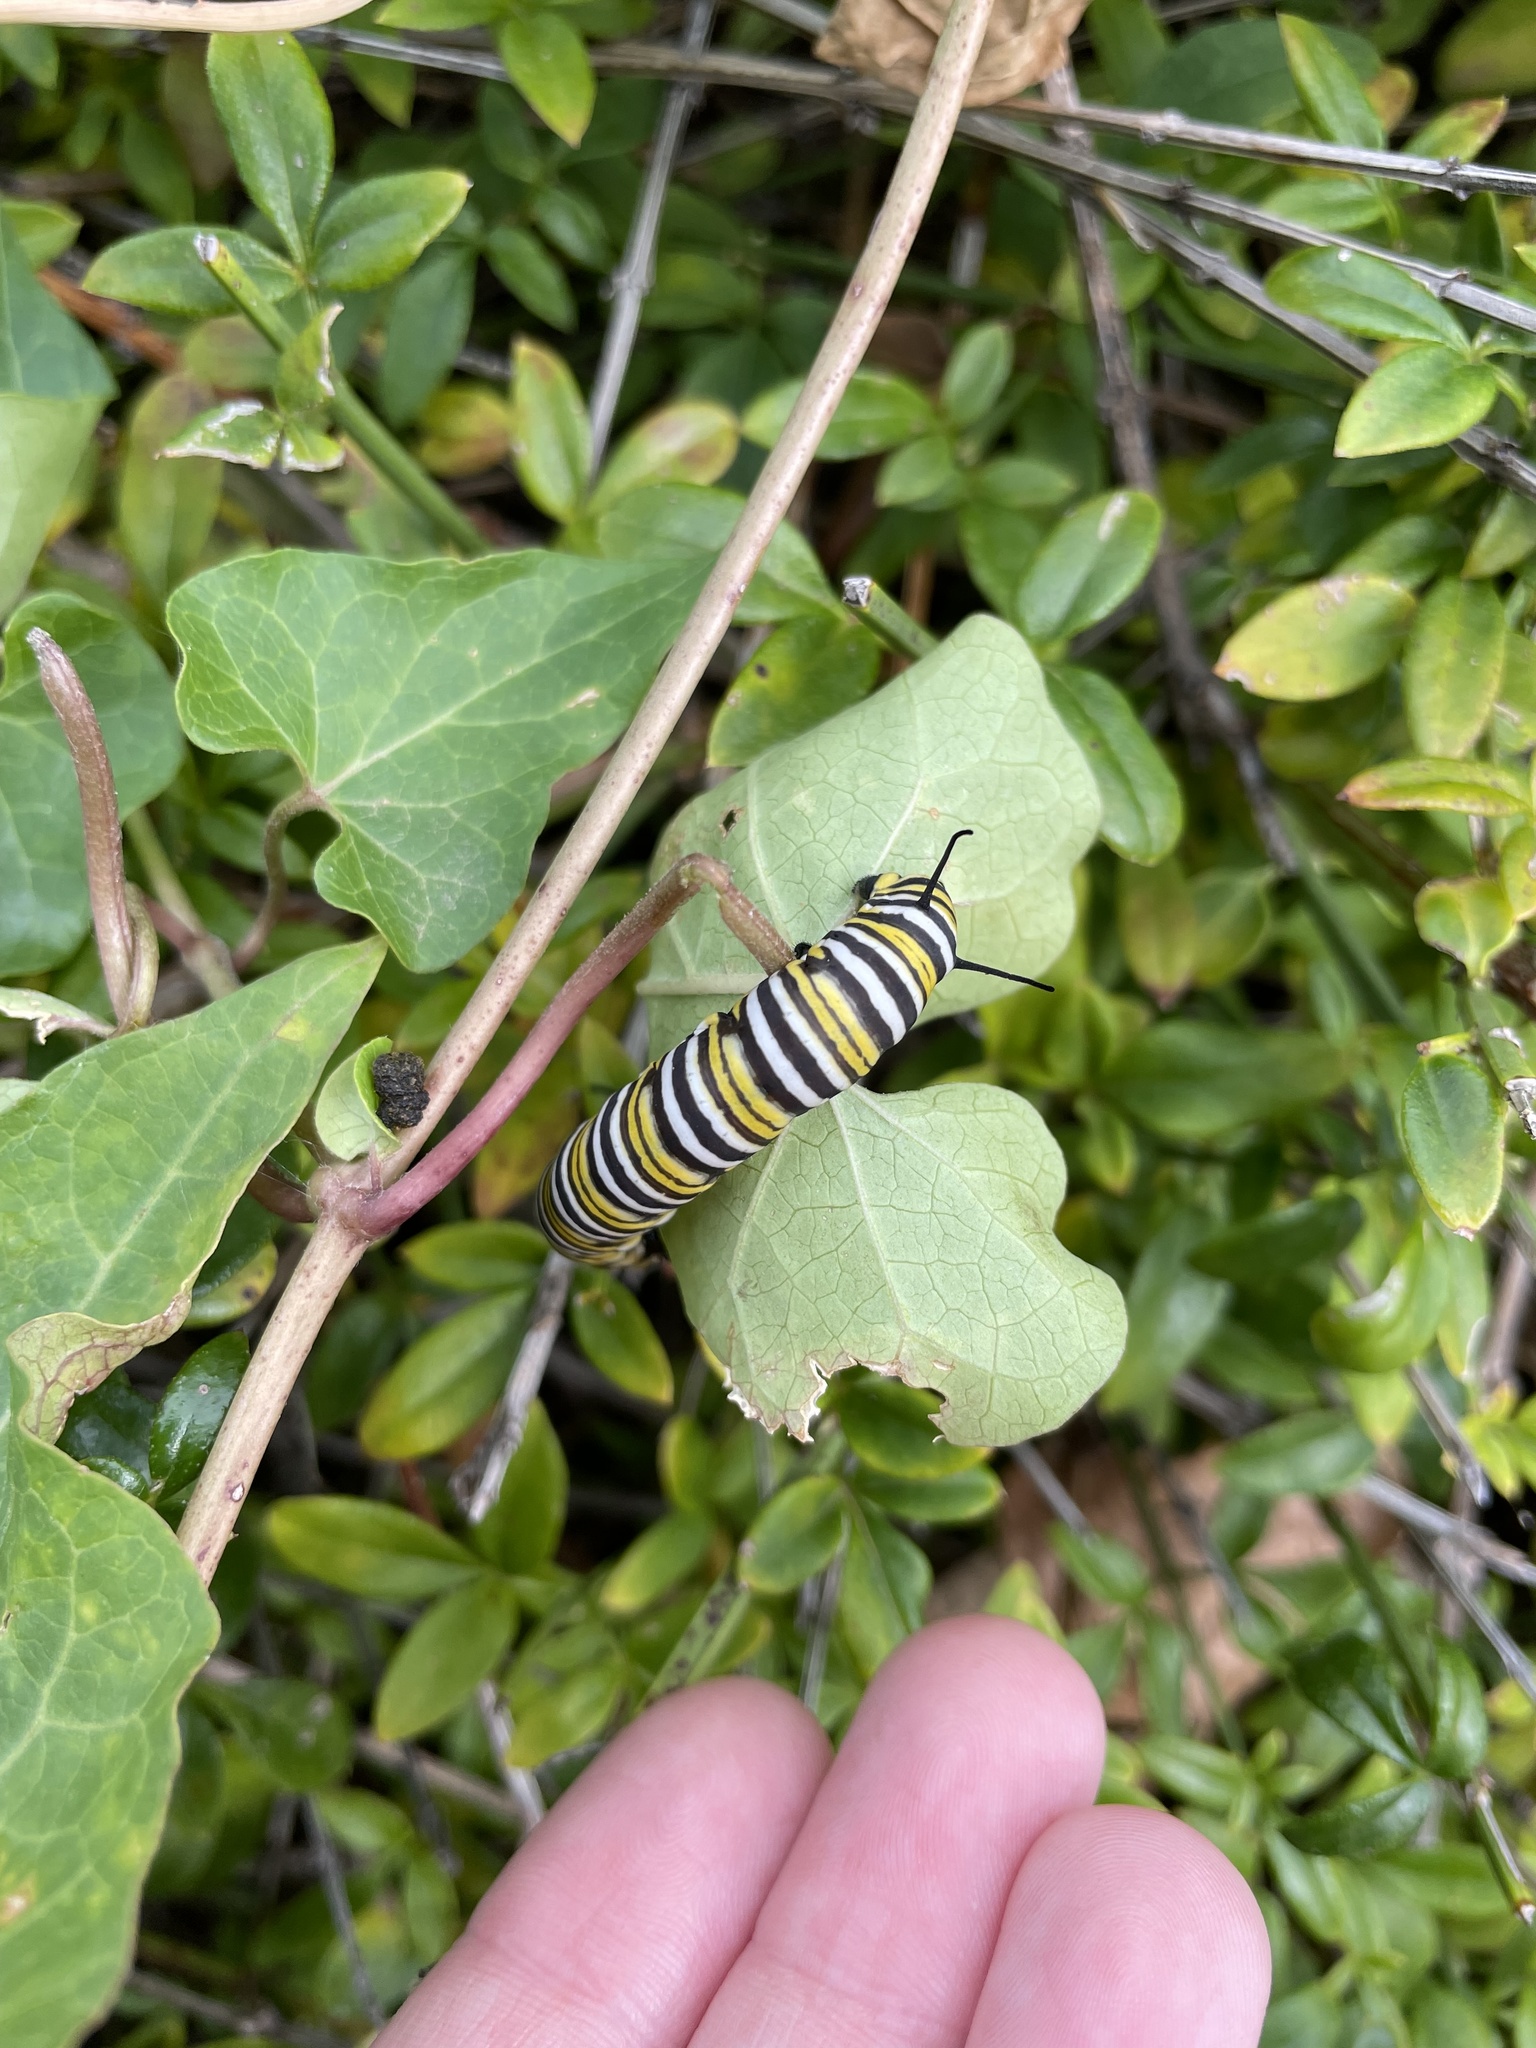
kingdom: Animalia
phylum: Arthropoda
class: Insecta
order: Lepidoptera
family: Nymphalidae
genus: Danaus
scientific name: Danaus plexippus
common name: Monarch
